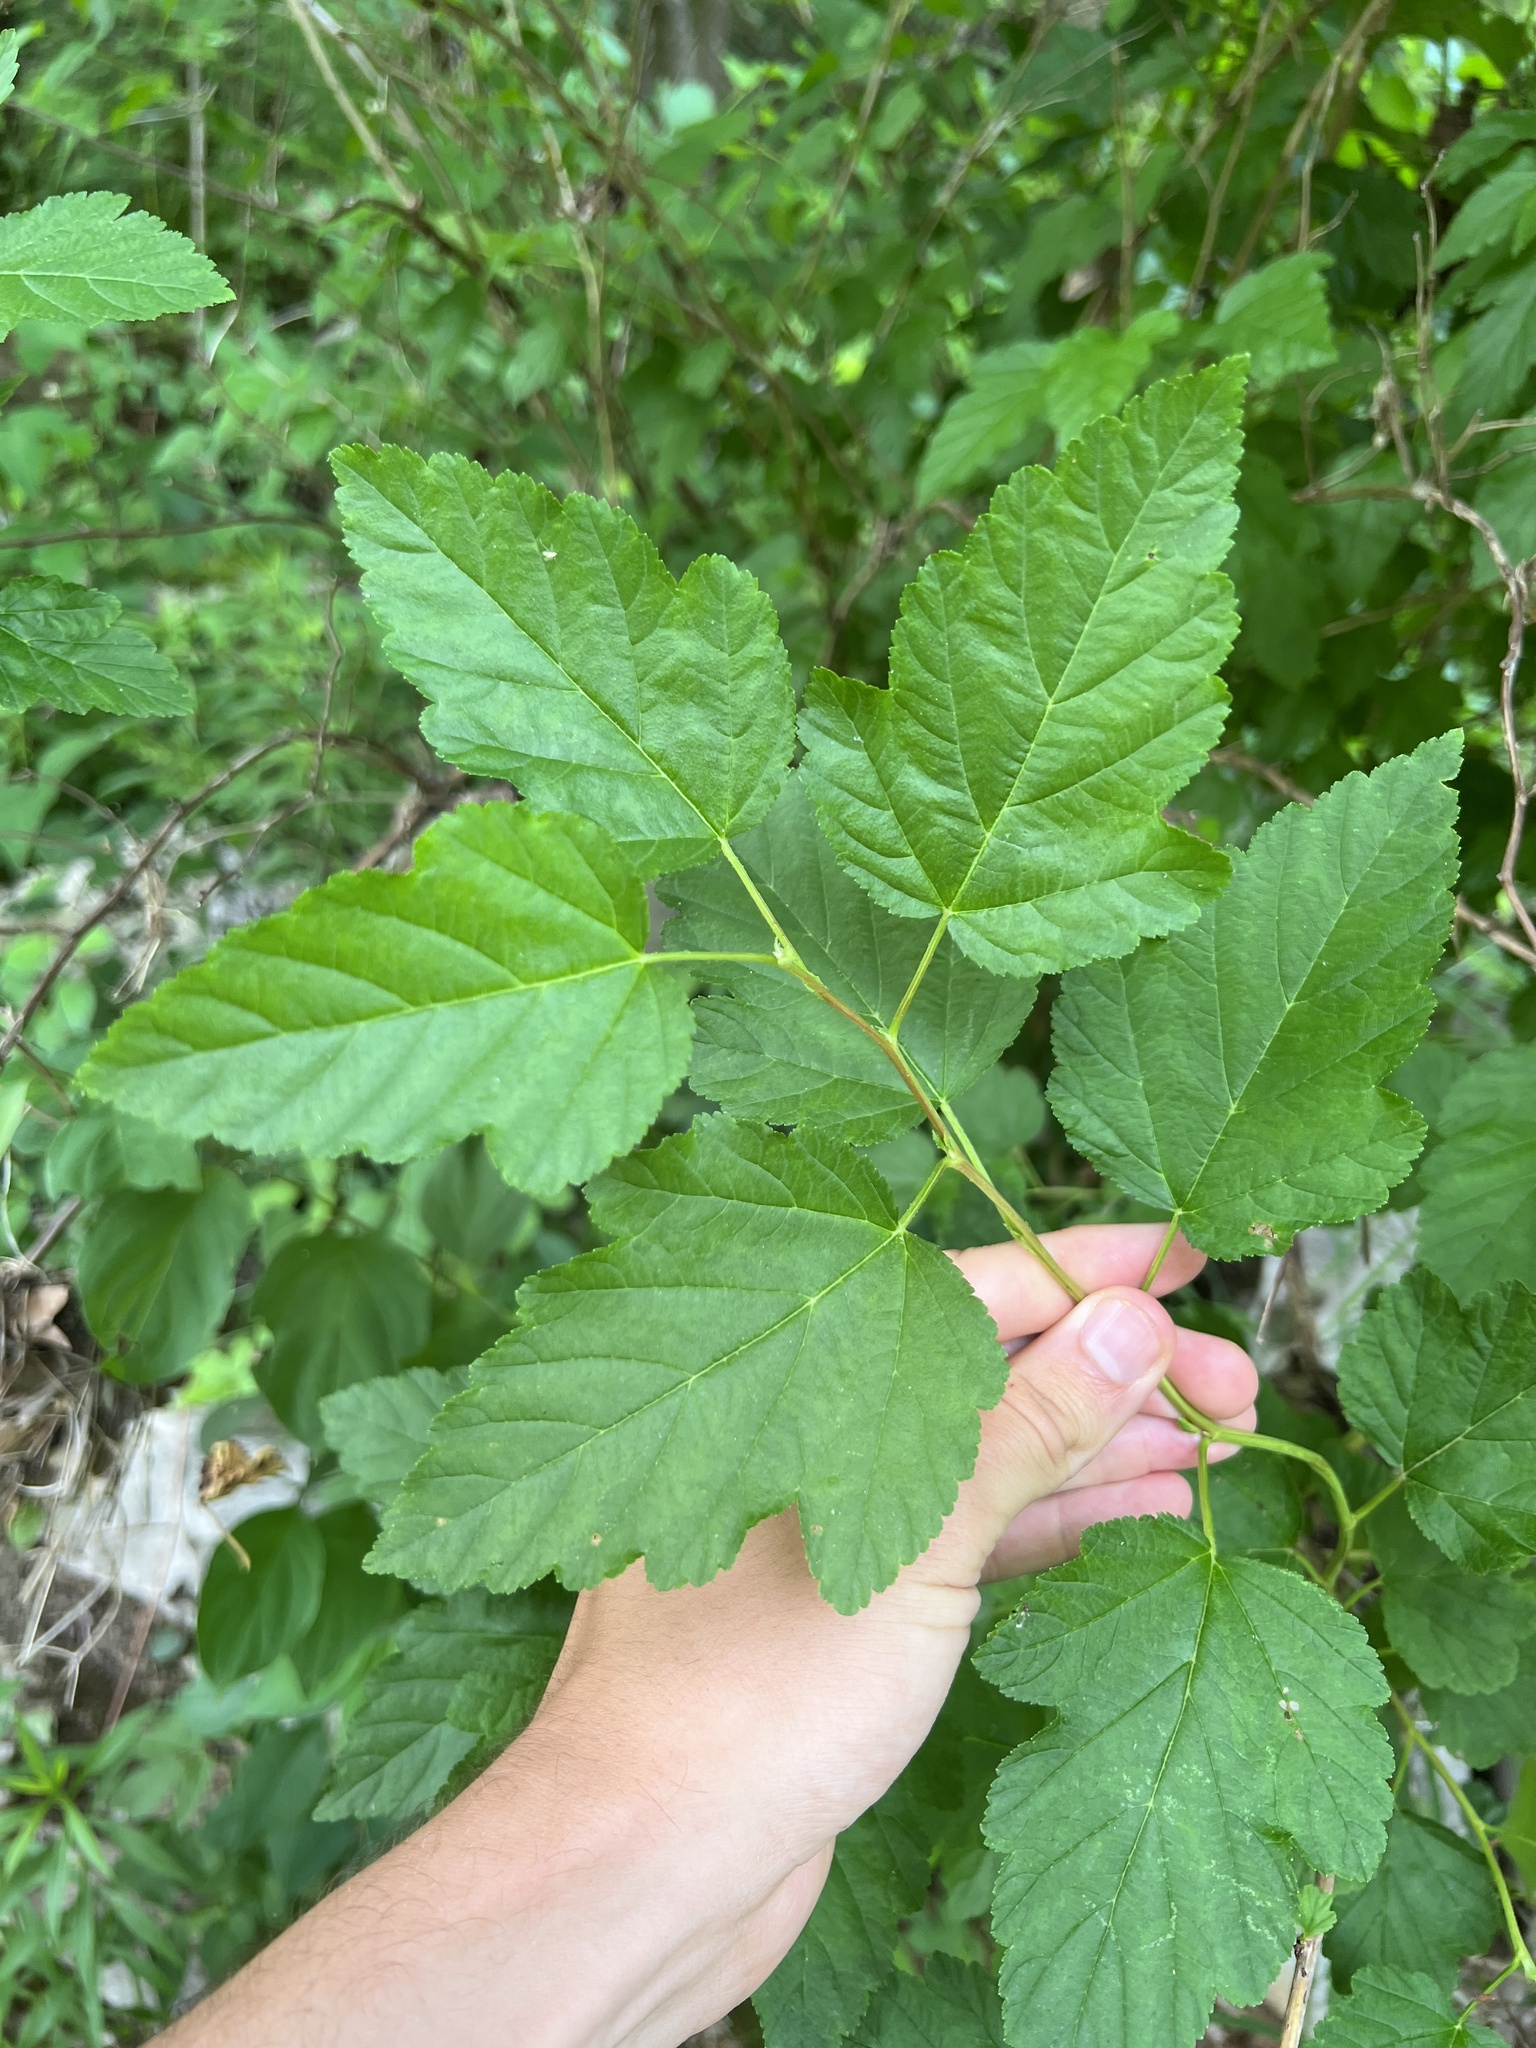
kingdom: Plantae
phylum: Tracheophyta
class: Magnoliopsida
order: Rosales
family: Rosaceae
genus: Physocarpus
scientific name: Physocarpus opulifolius
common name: Ninebark
